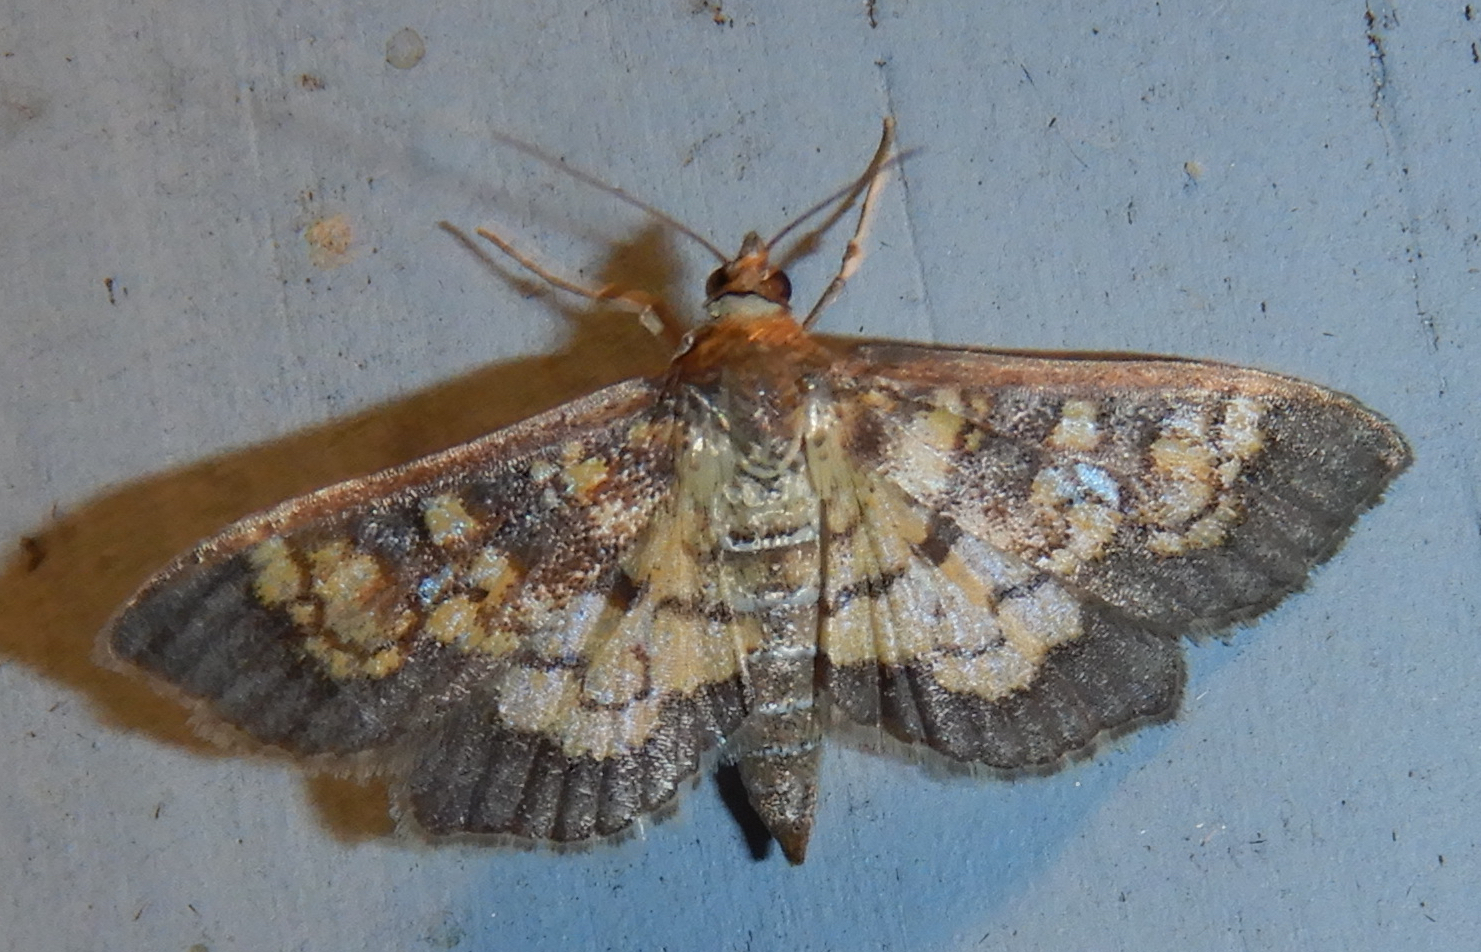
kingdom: Animalia
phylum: Arthropoda
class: Insecta
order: Lepidoptera
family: Crambidae
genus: Epipagis
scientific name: Epipagis adipaloides
